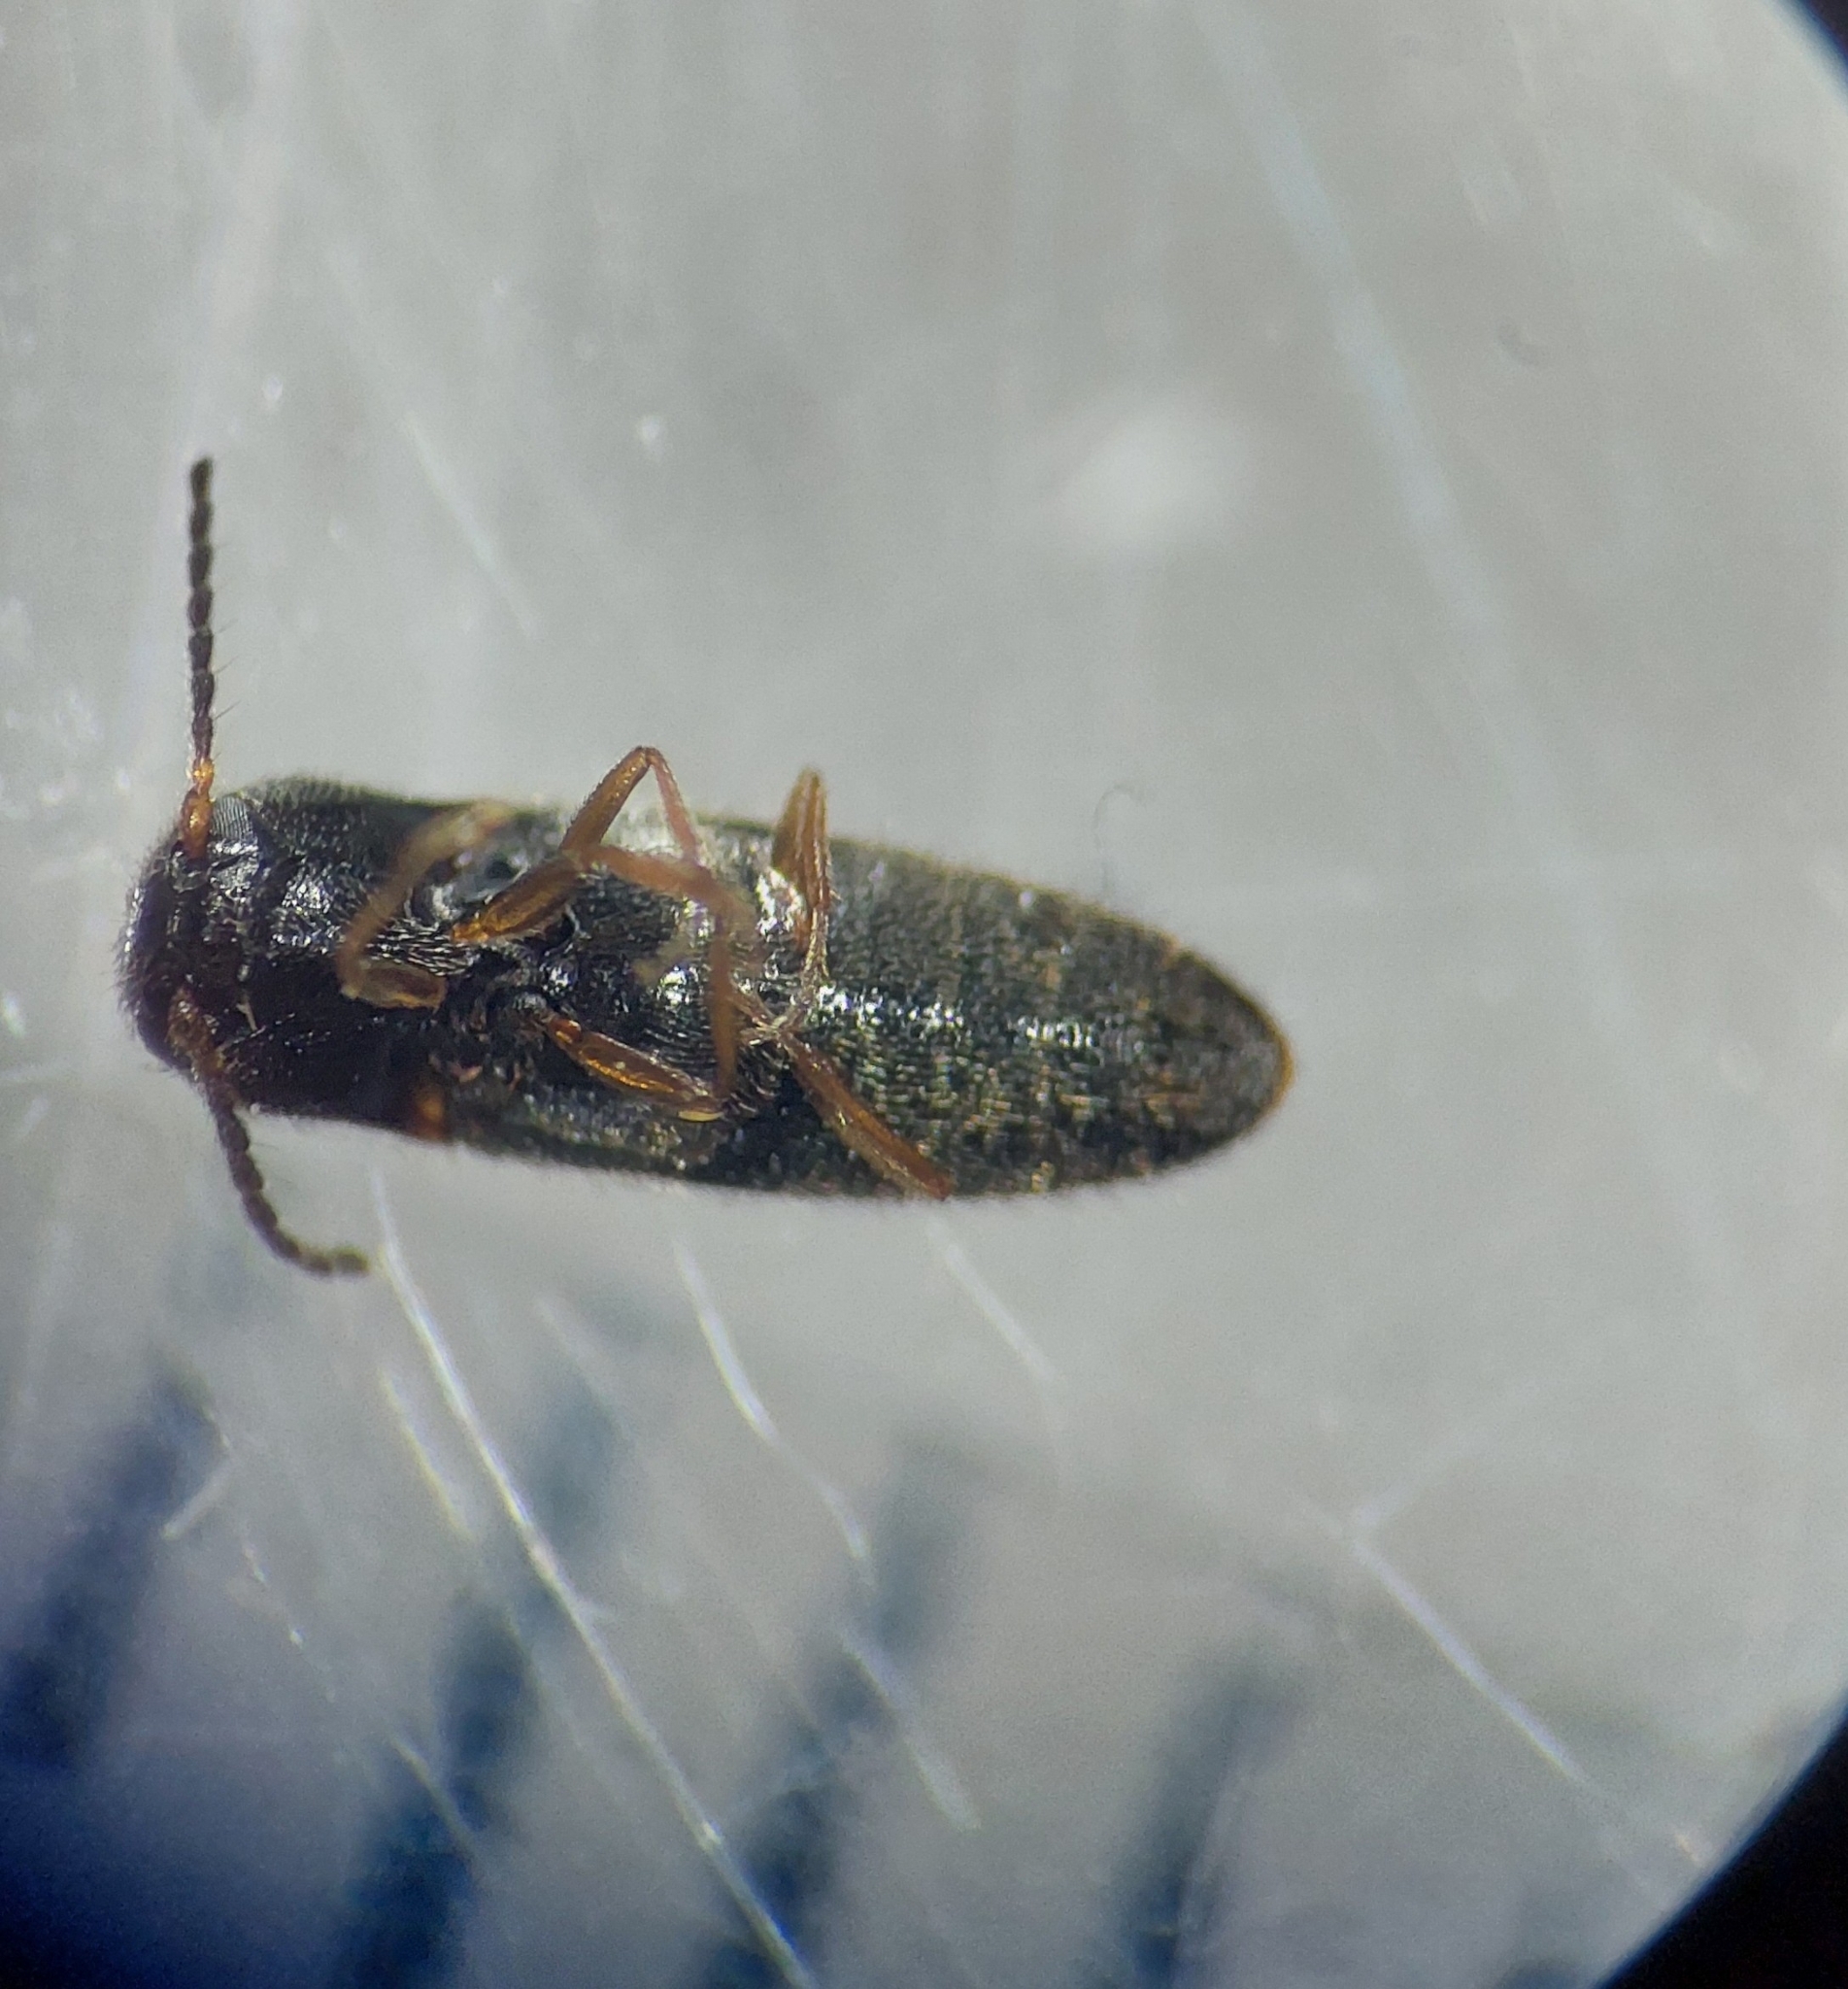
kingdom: Animalia
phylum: Arthropoda
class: Insecta
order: Coleoptera
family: Elateridae
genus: Adrastus
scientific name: Adrastus montanus
